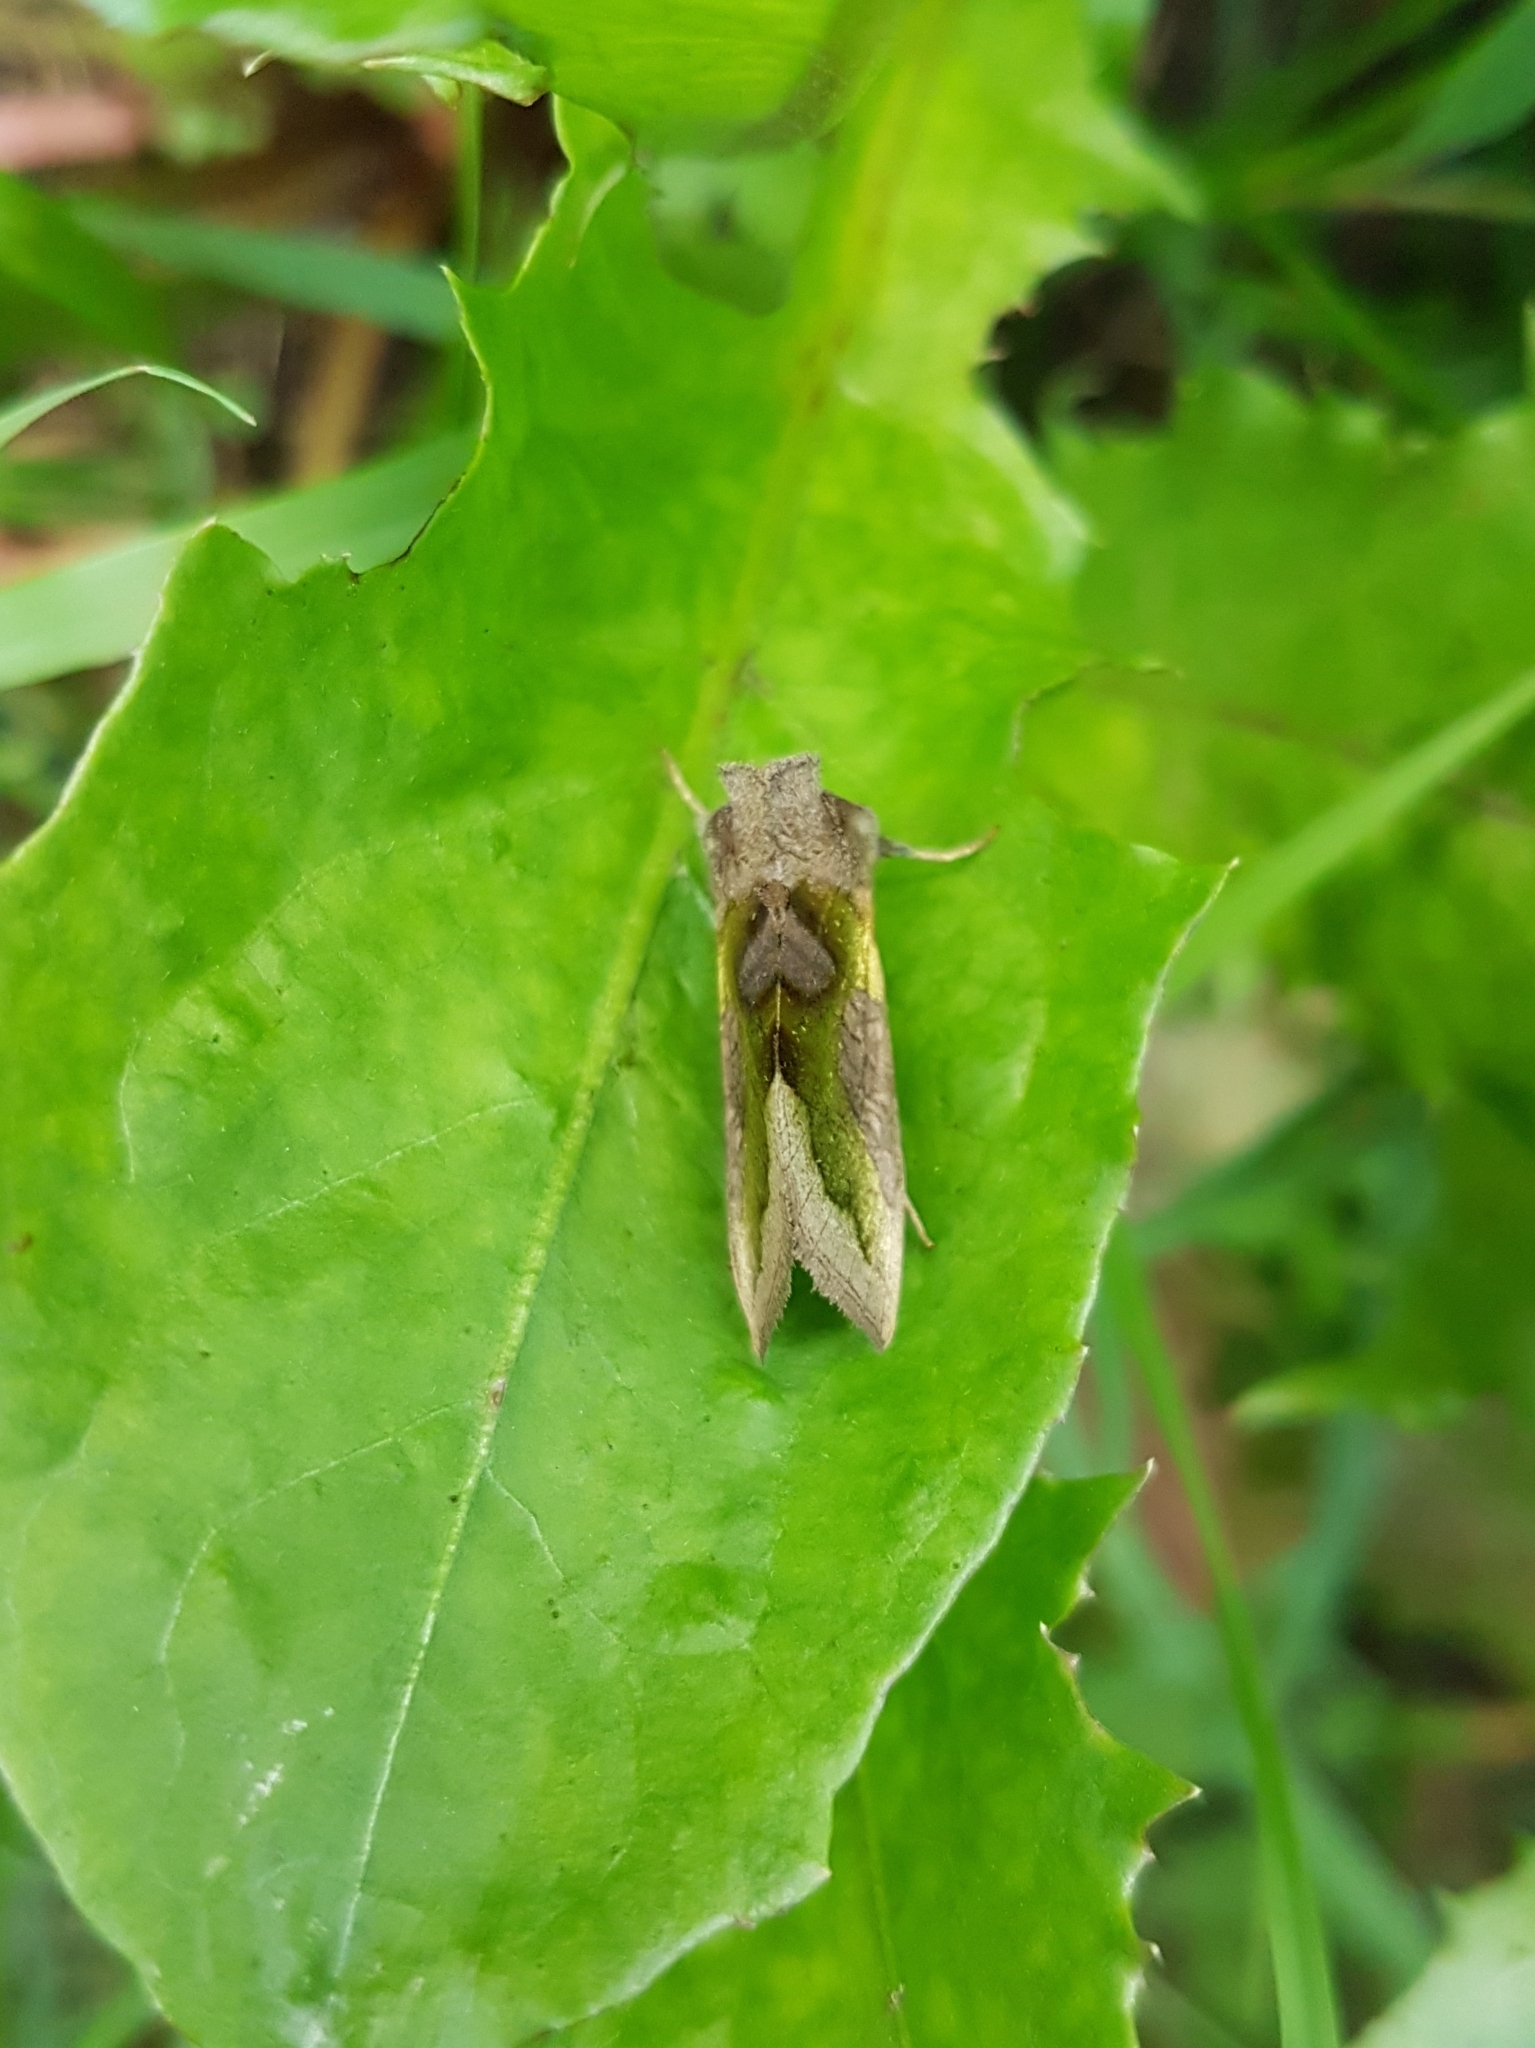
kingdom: Animalia
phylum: Arthropoda
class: Insecta
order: Lepidoptera
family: Noctuidae
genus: Diachrysia
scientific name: Diachrysia stenochrysis
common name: Cryptic burnished brass
